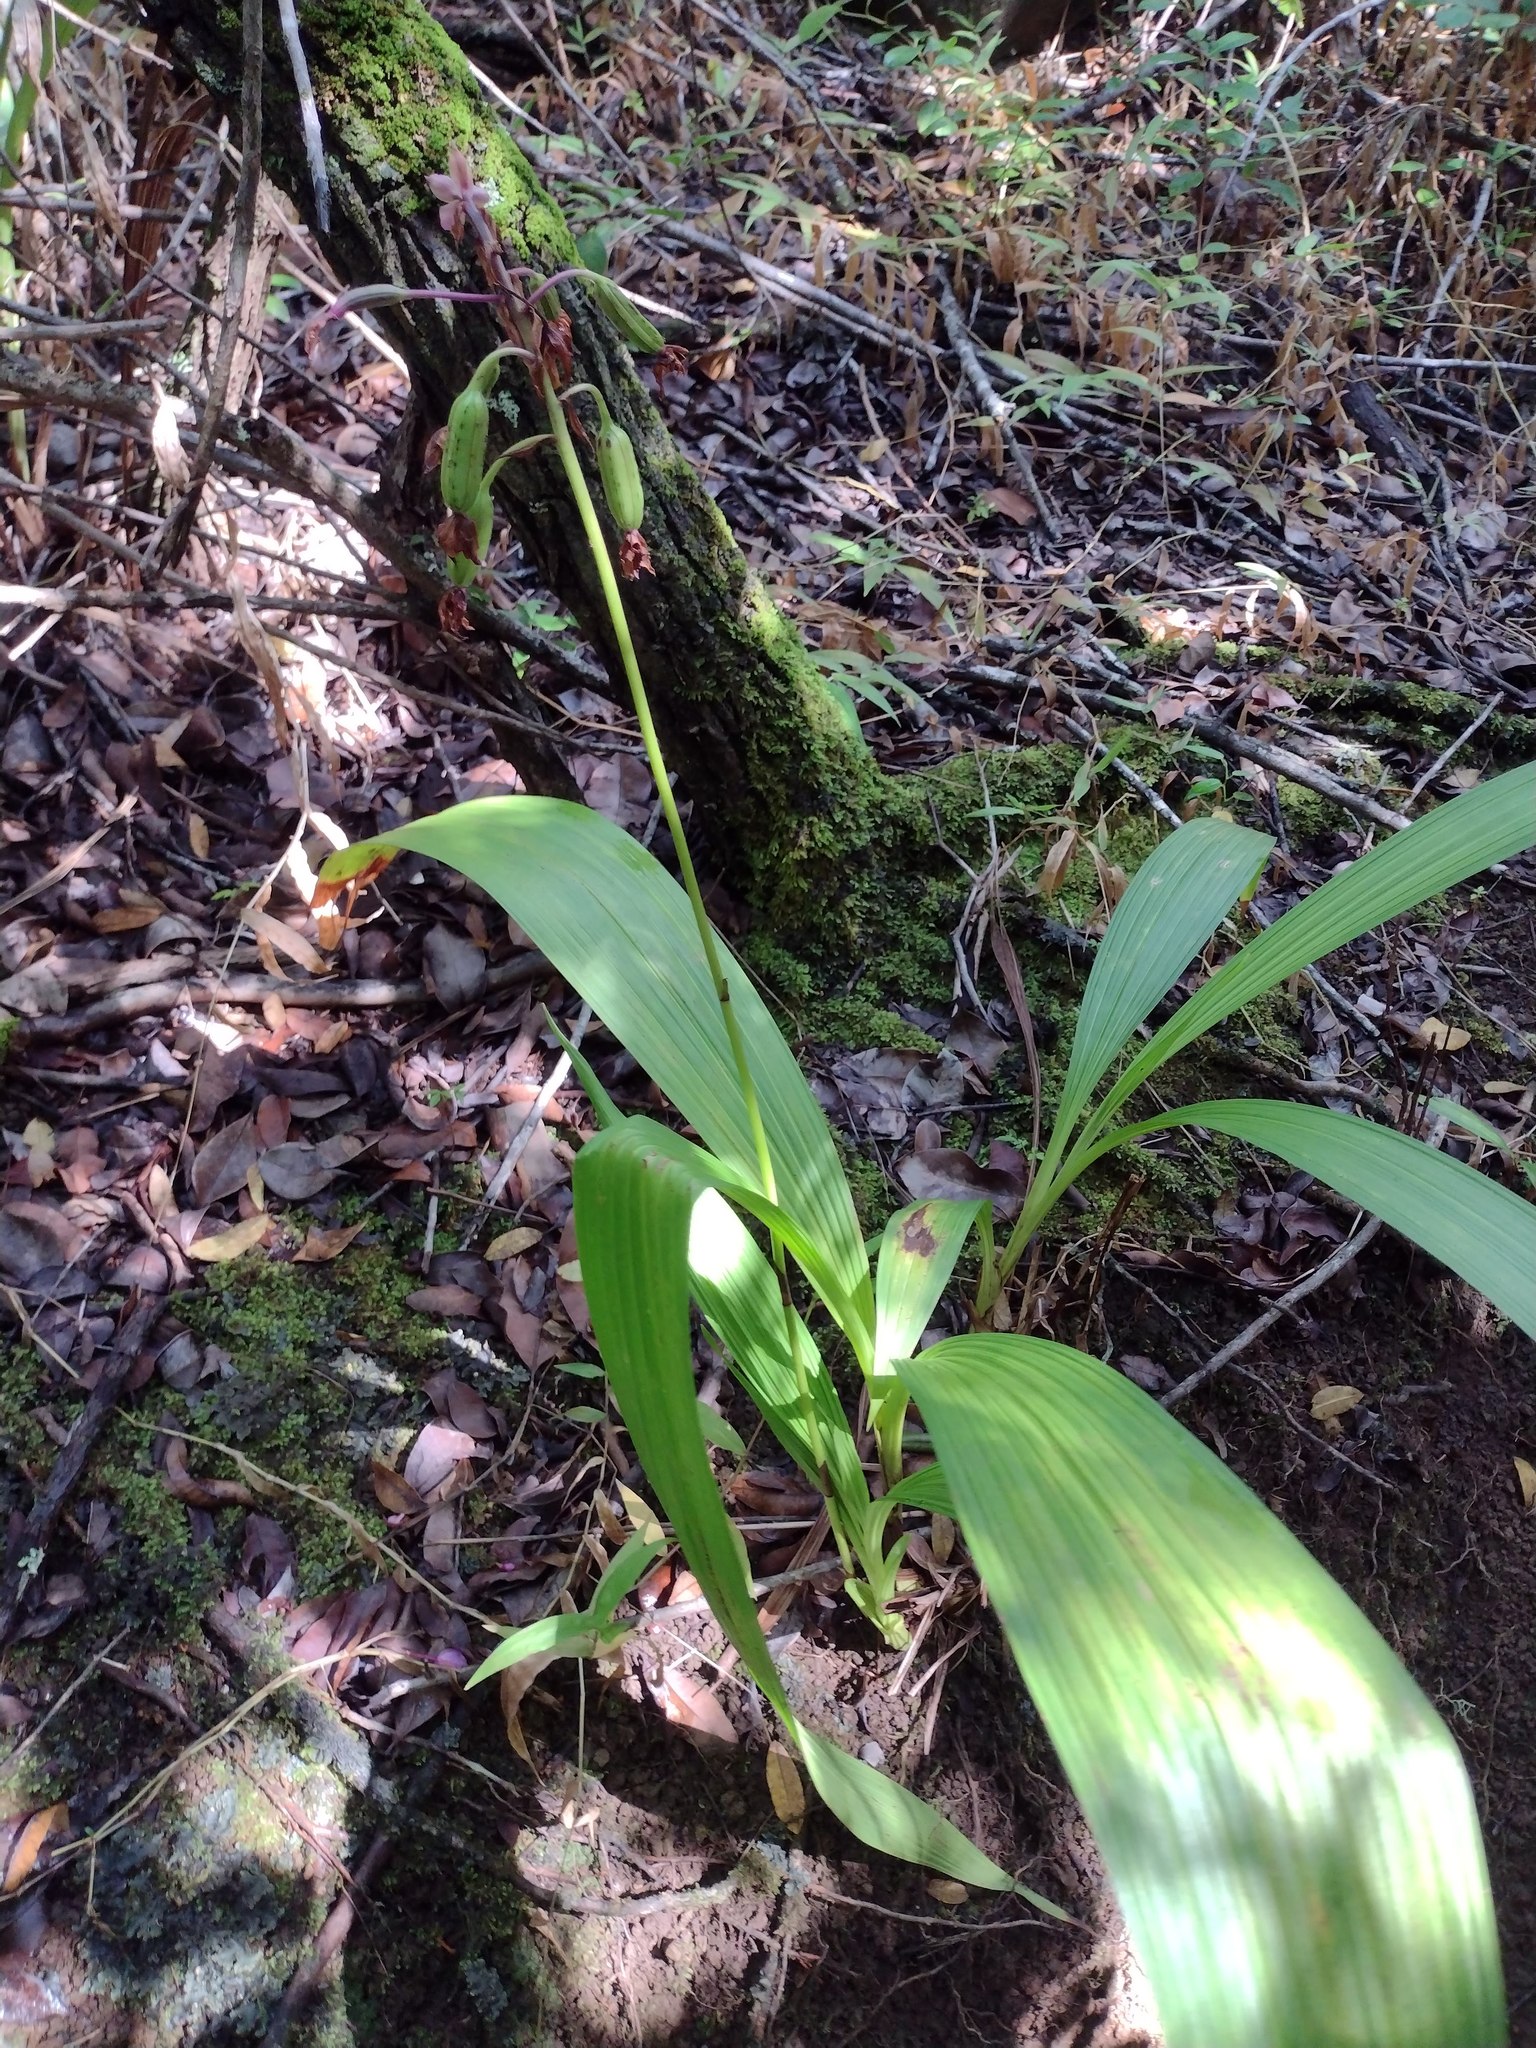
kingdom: Plantae
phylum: Tracheophyta
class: Liliopsida
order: Asparagales
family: Orchidaceae
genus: Spathoglottis
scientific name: Spathoglottis plicata
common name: Philippine ground orchid
